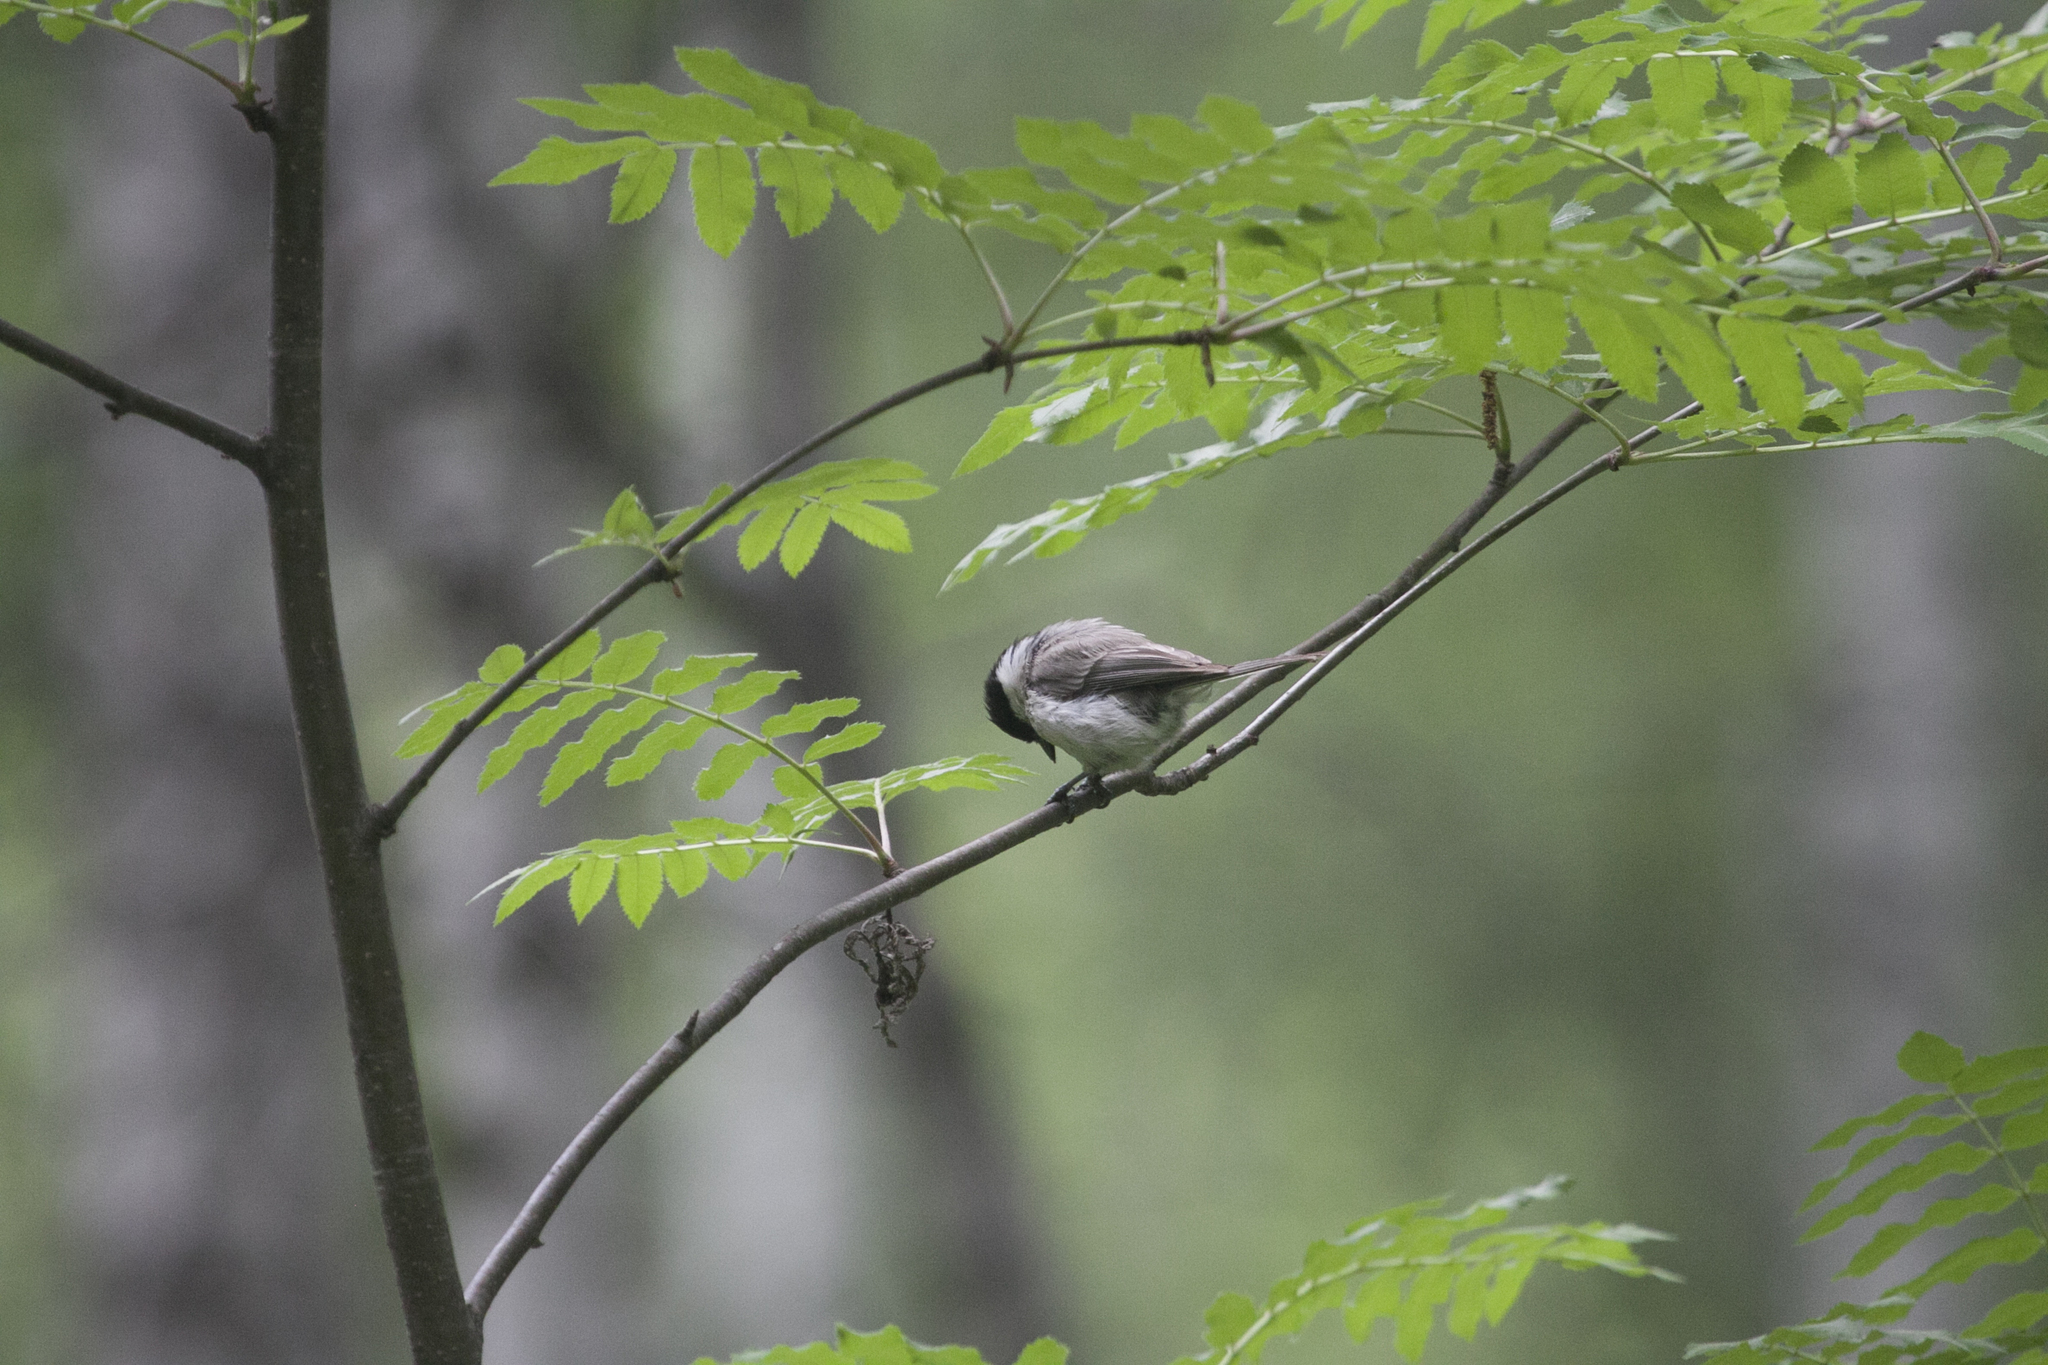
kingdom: Animalia
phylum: Chordata
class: Aves
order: Passeriformes
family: Paridae
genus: Poecile
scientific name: Poecile palustris
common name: Marsh tit
